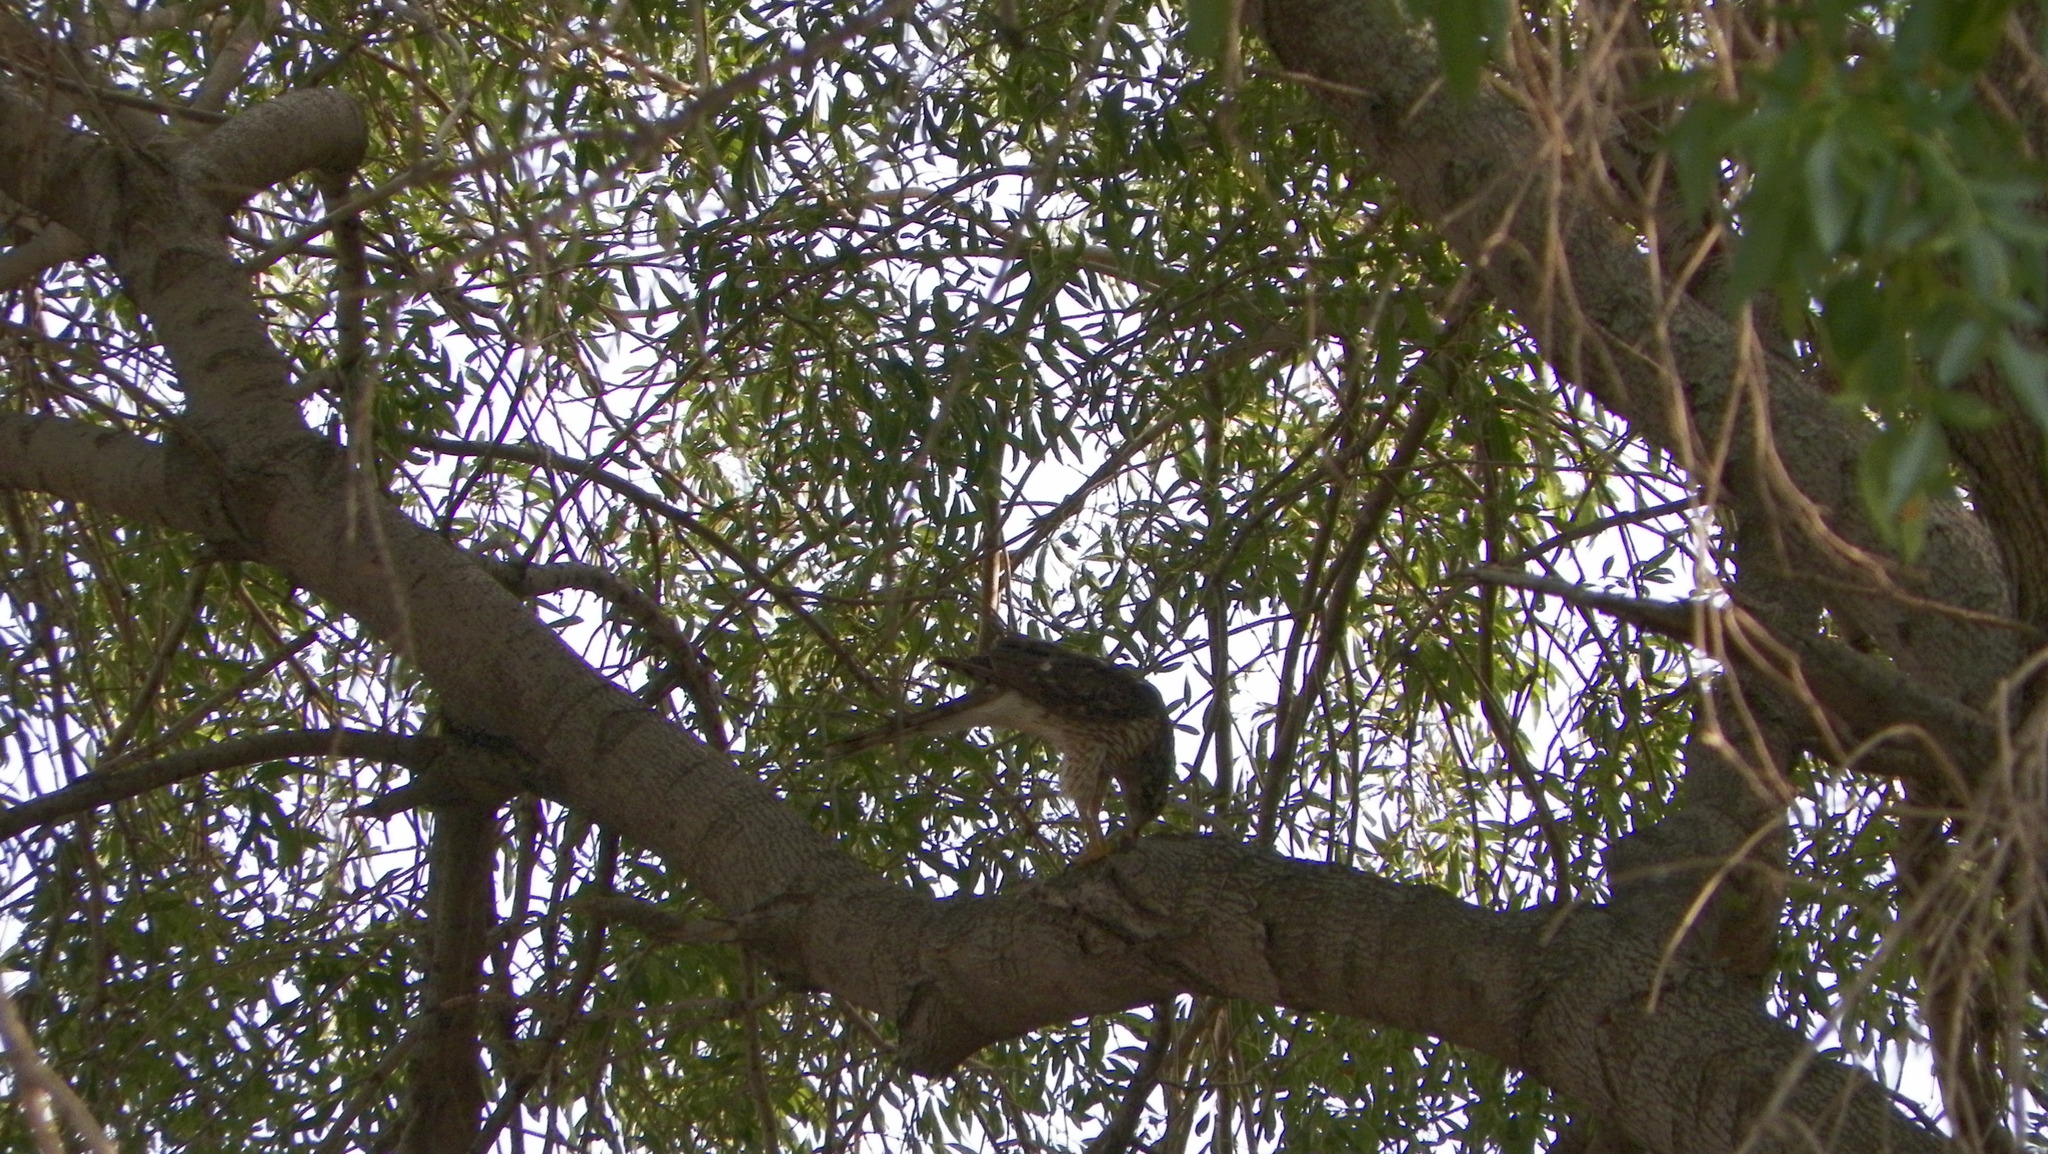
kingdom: Animalia
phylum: Chordata
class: Aves
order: Accipitriformes
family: Accipitridae
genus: Accipiter
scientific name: Accipiter cooperii
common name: Cooper's hawk
